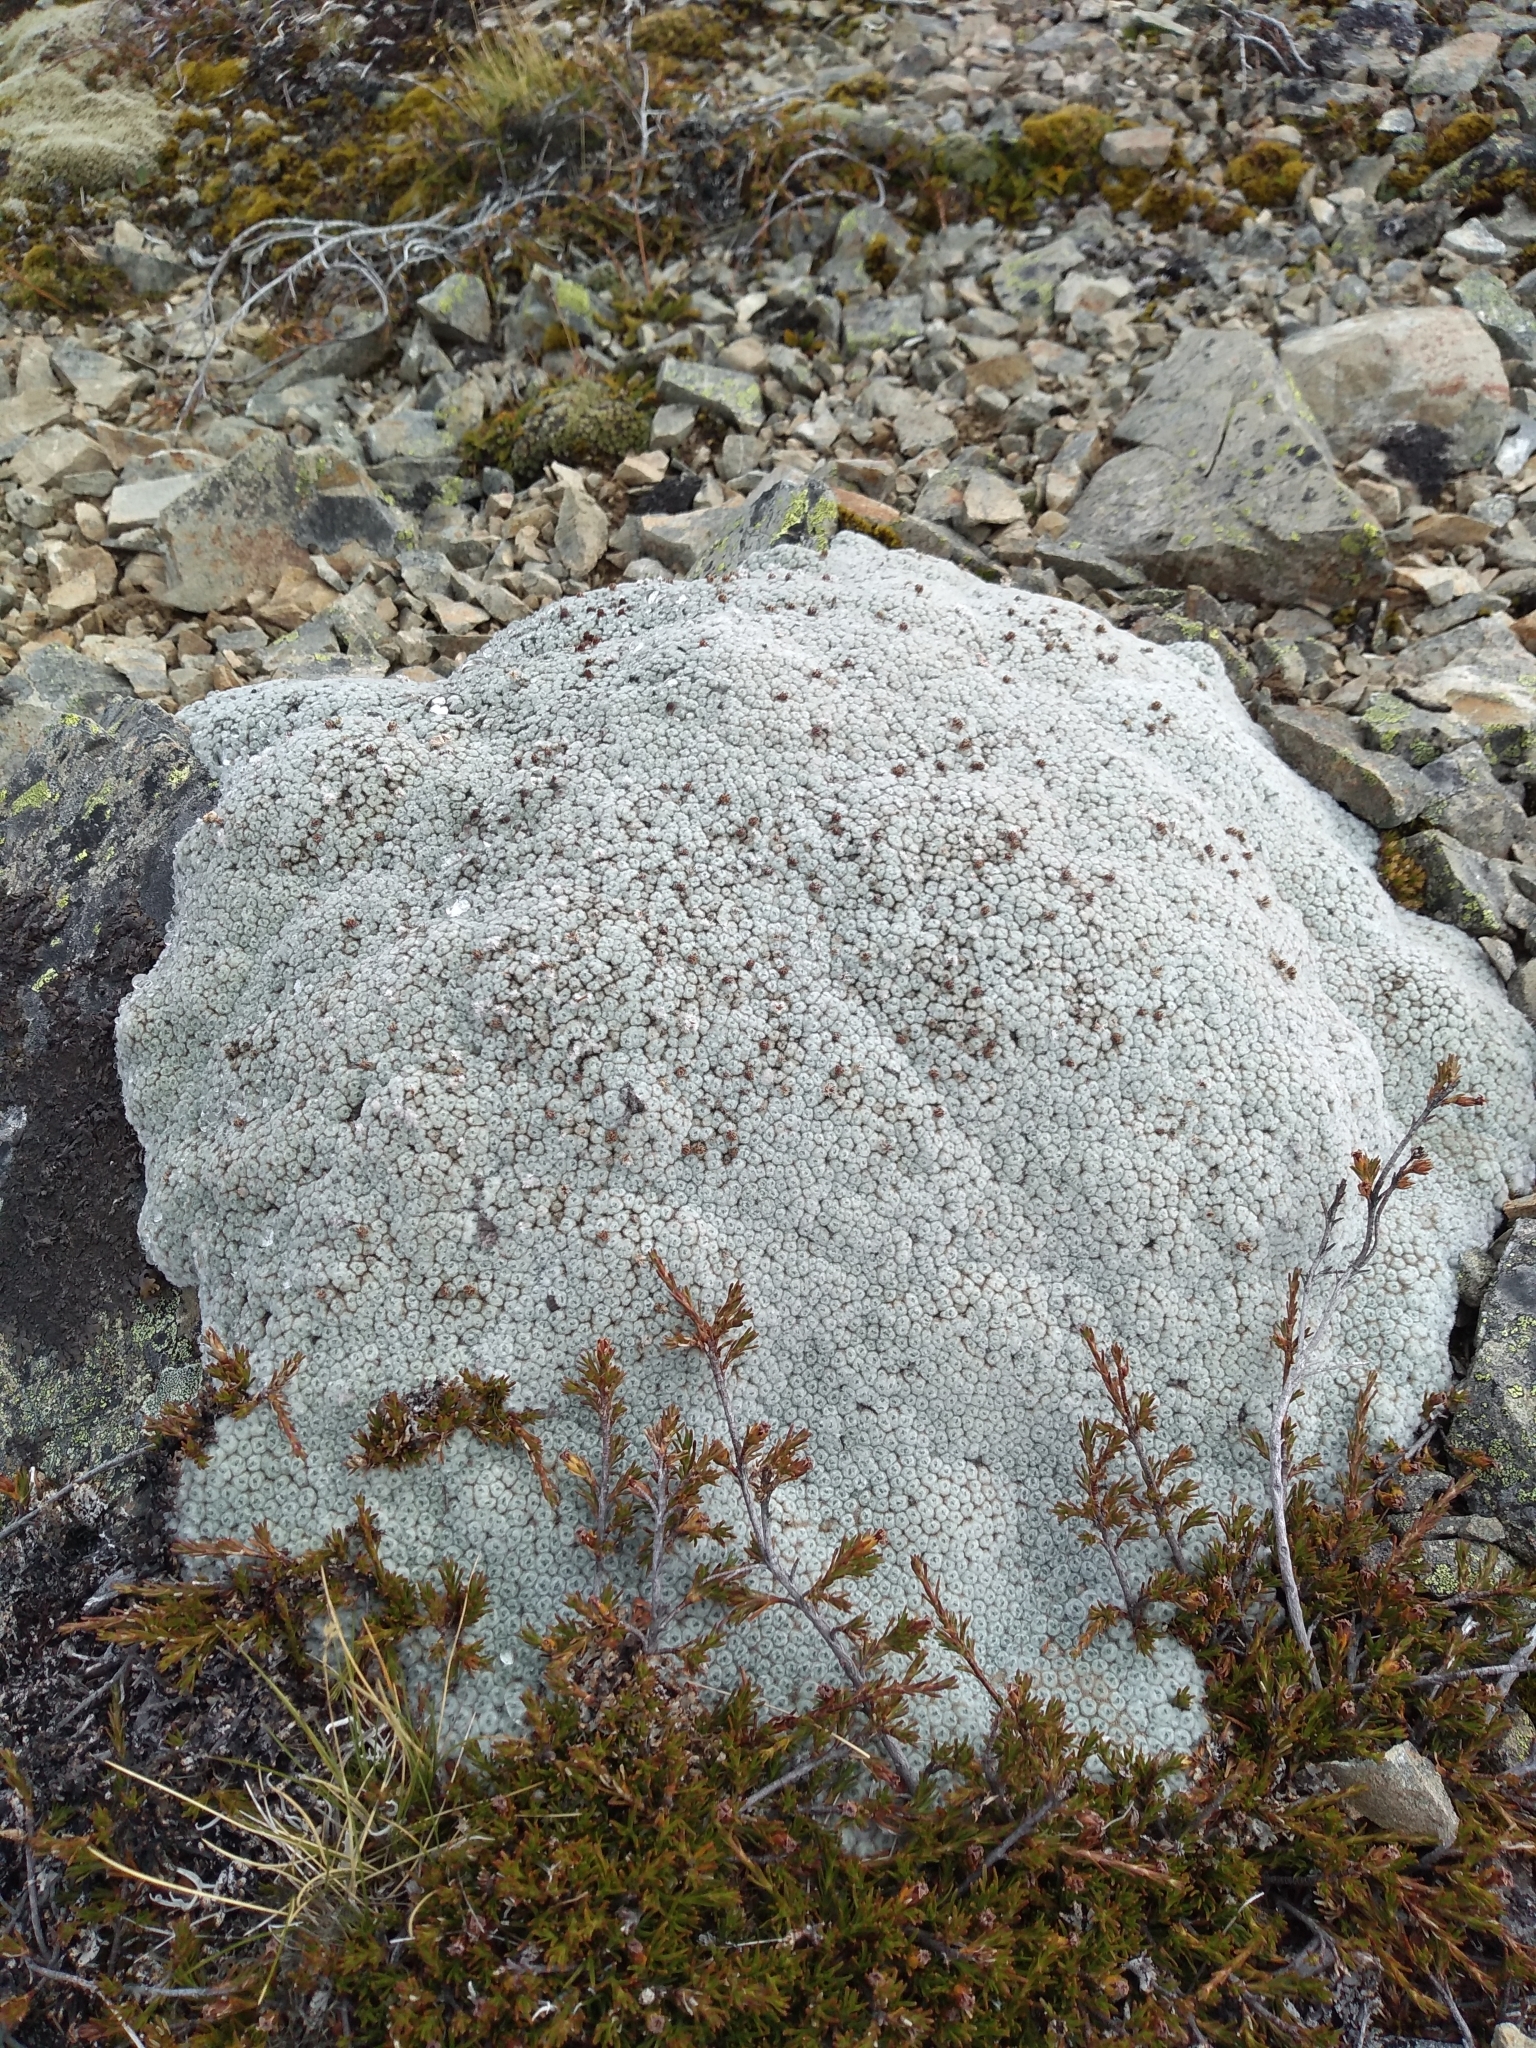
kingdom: Plantae
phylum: Tracheophyta
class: Magnoliopsida
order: Asterales
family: Asteraceae
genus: Raoulia
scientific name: Raoulia eximia
